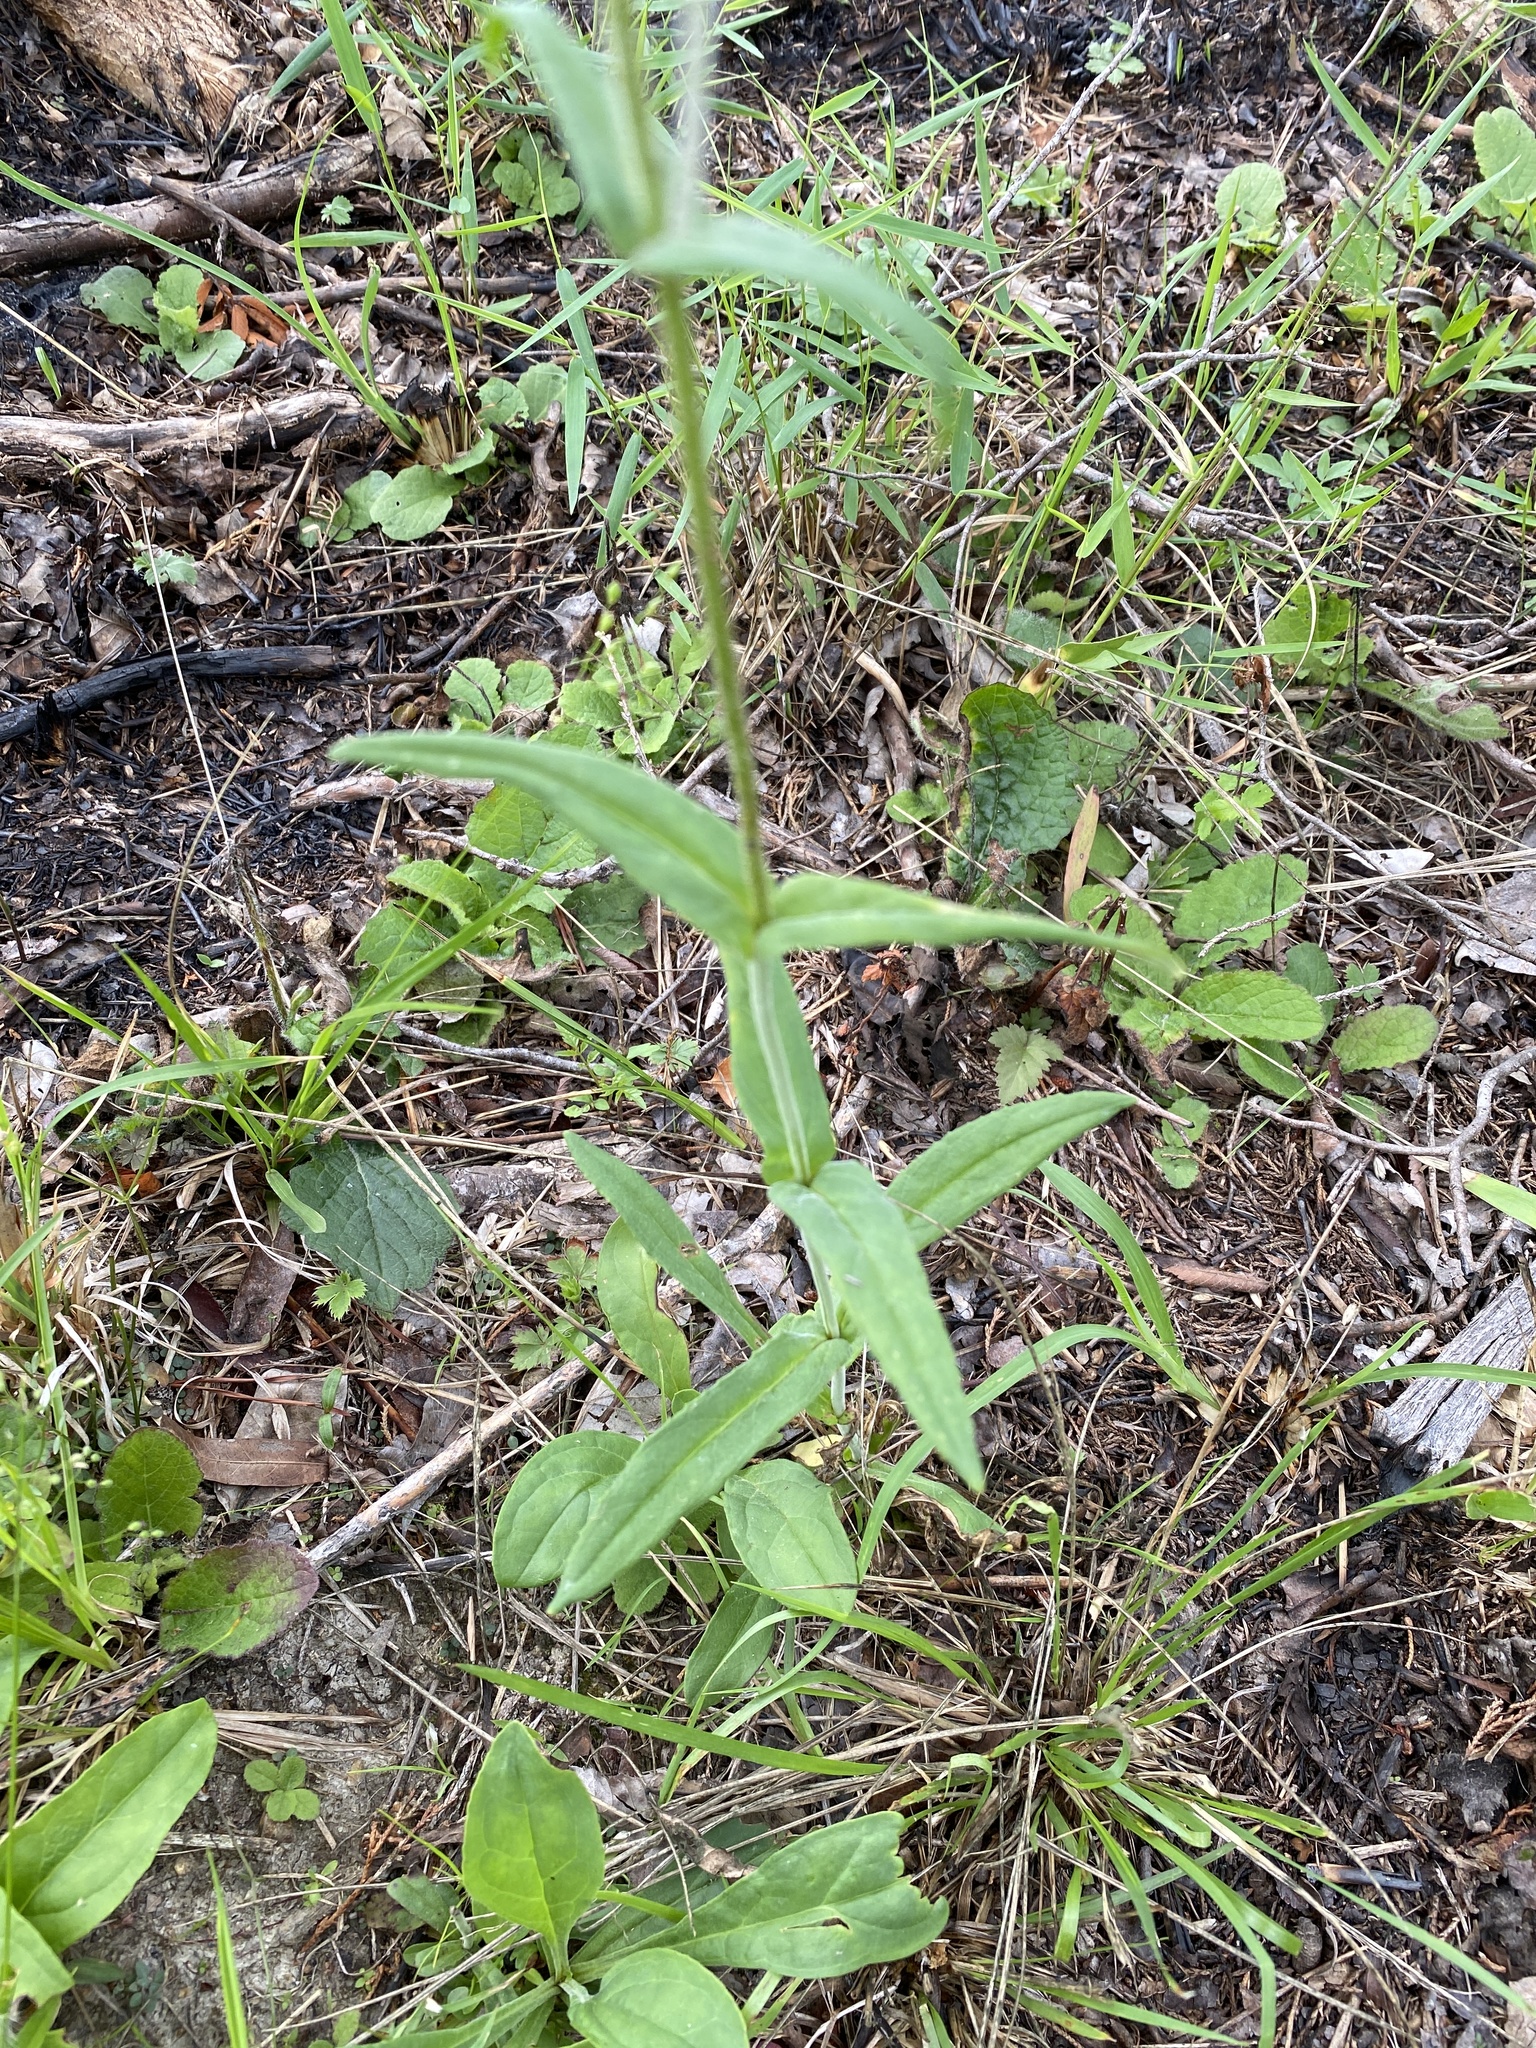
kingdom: Plantae
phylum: Tracheophyta
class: Magnoliopsida
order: Lamiales
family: Plantaginaceae
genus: Penstemon
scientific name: Penstemon laevigatus
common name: Eastern beardtongue
